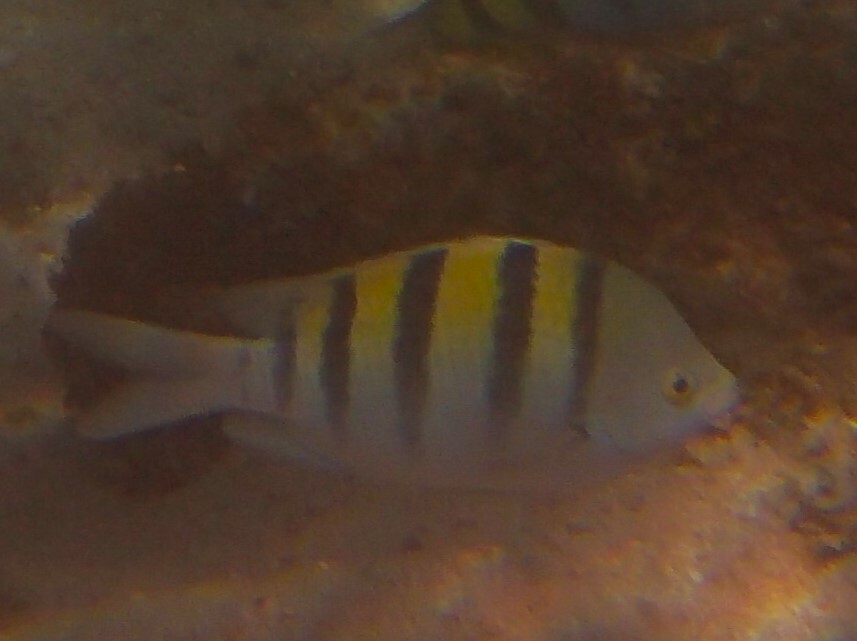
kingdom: Animalia
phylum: Chordata
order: Perciformes
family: Pomacentridae
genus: Abudefduf
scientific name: Abudefduf troschelii
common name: Panamic sergeant major
